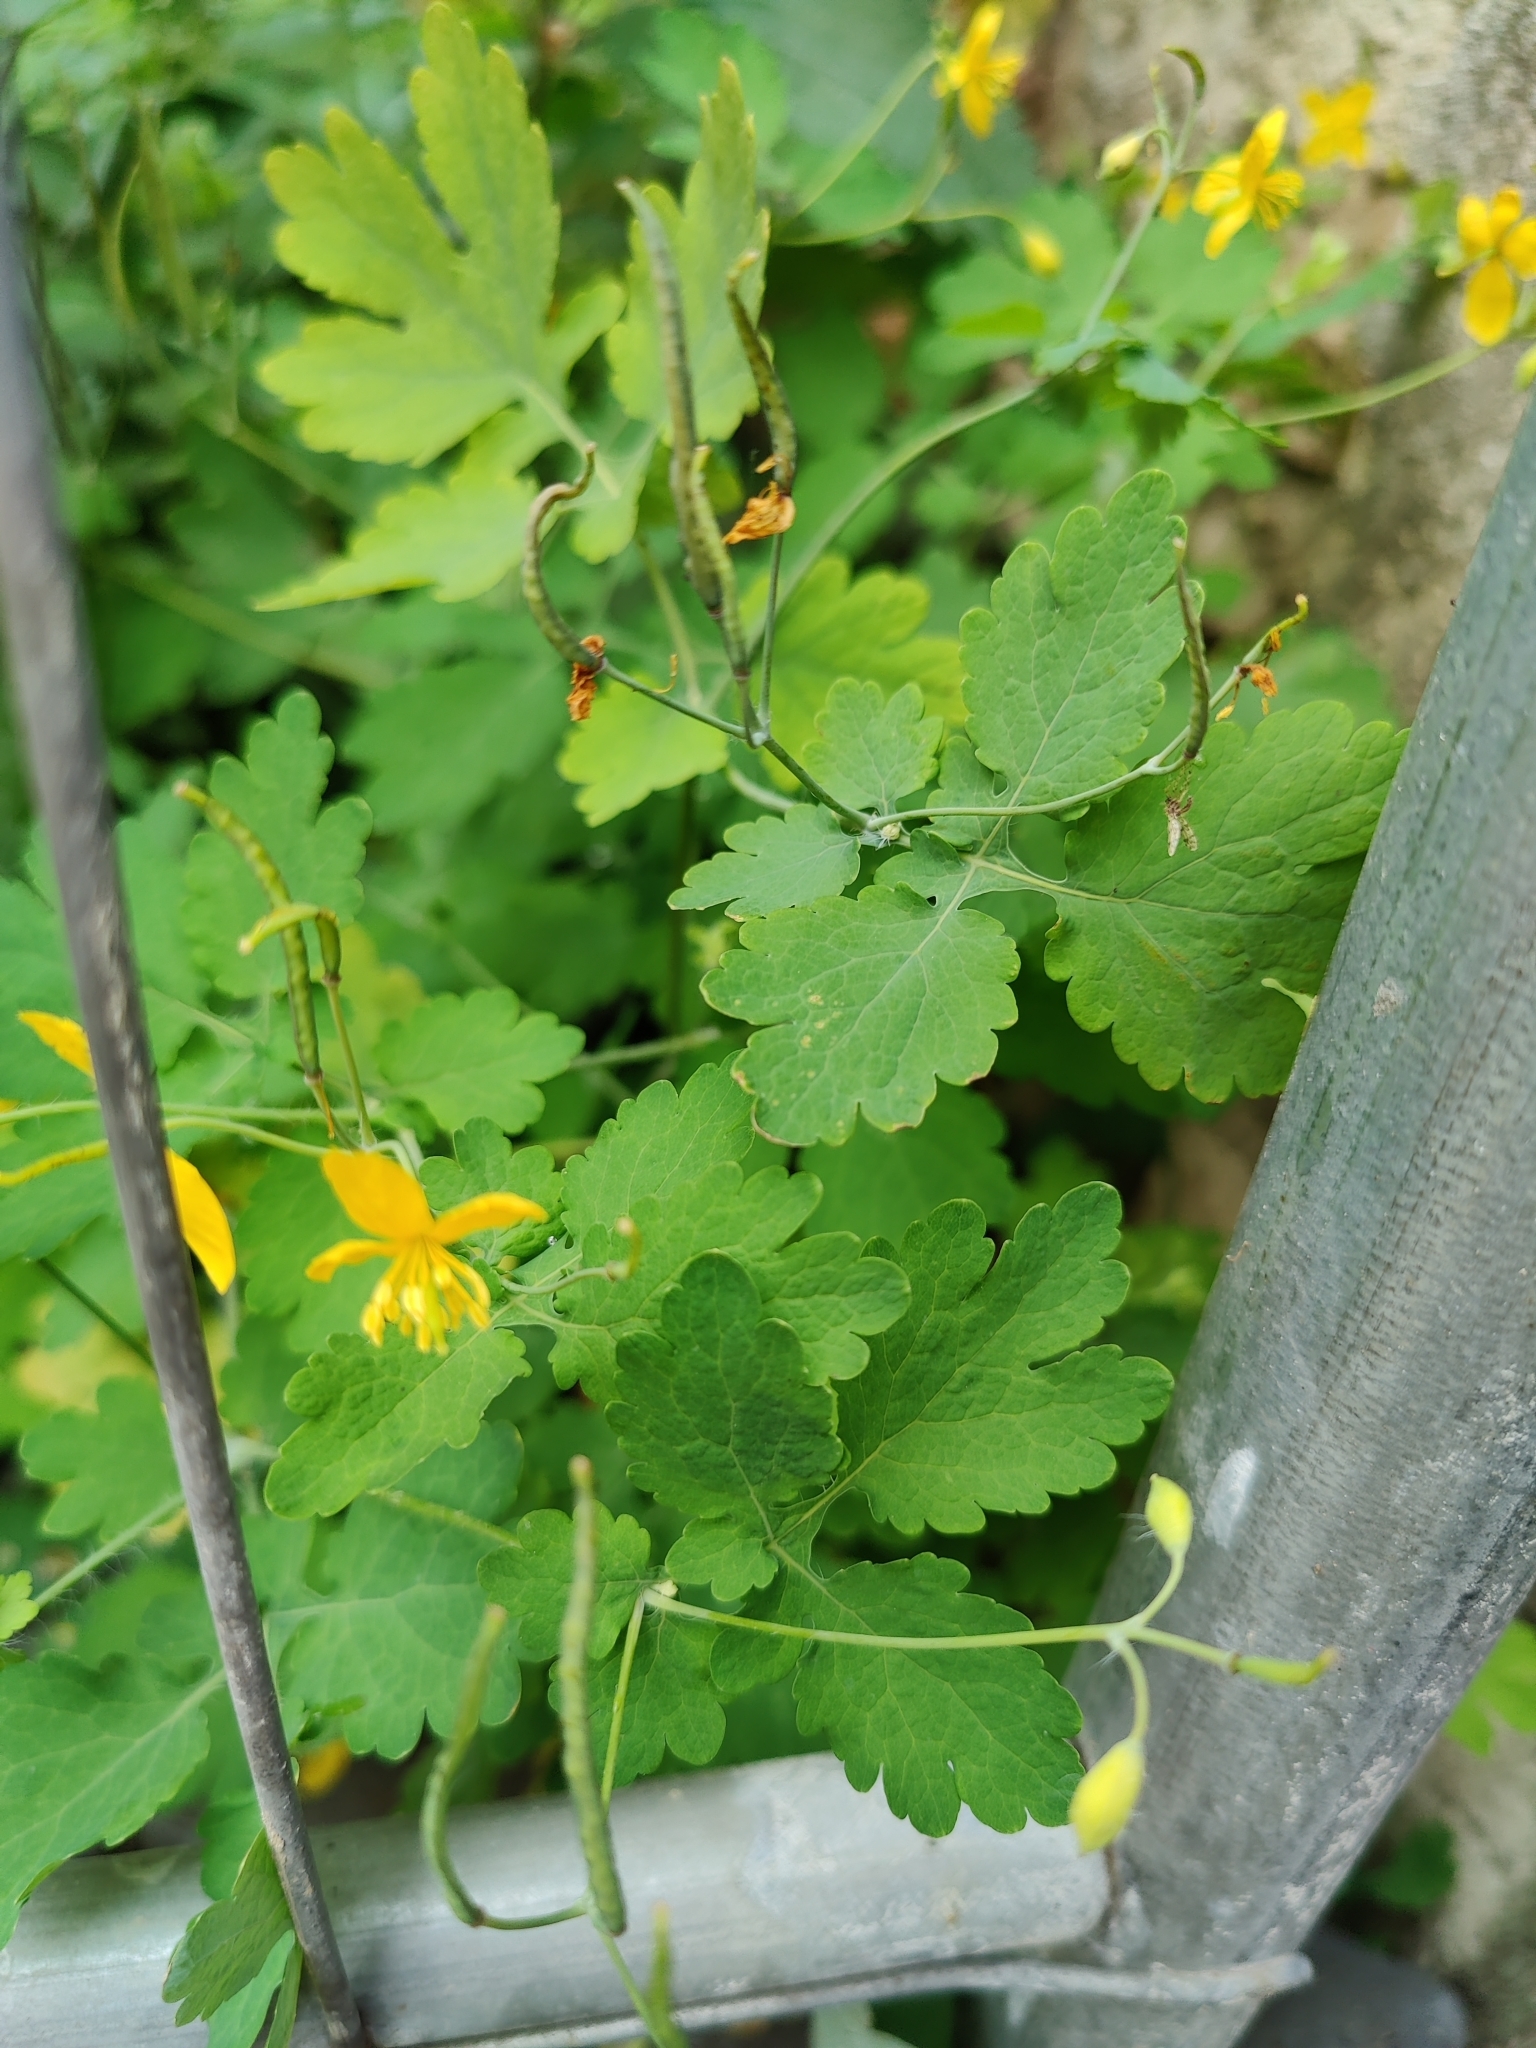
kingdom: Plantae
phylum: Tracheophyta
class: Magnoliopsida
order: Ranunculales
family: Papaveraceae
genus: Chelidonium
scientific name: Chelidonium majus
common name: Greater celandine
